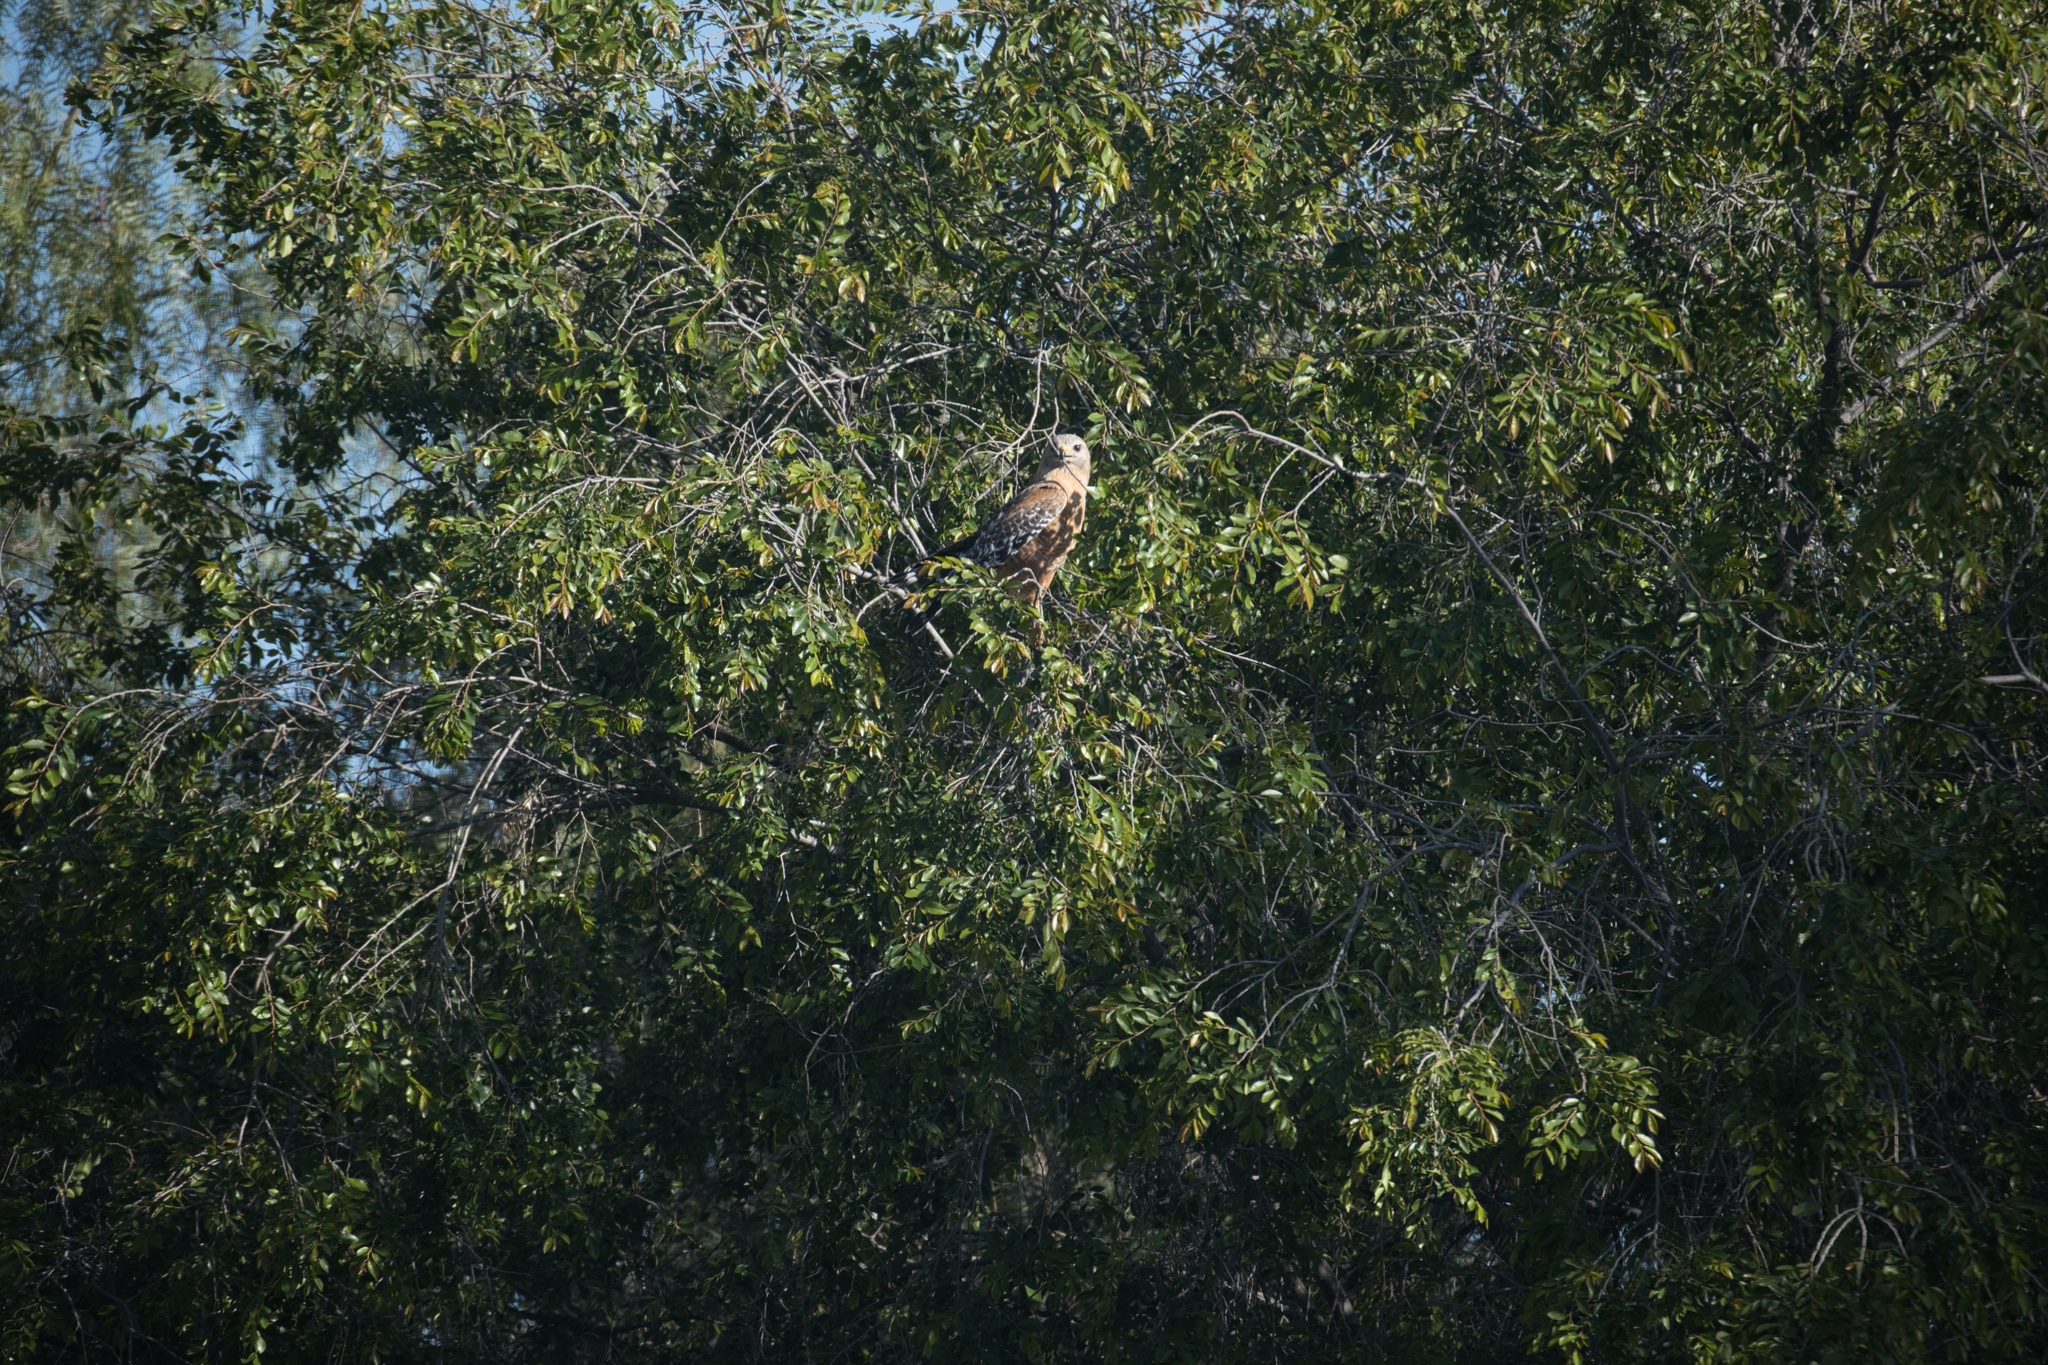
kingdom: Animalia
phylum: Chordata
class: Aves
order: Accipitriformes
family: Accipitridae
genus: Buteo
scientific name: Buteo lineatus
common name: Red-shouldered hawk
